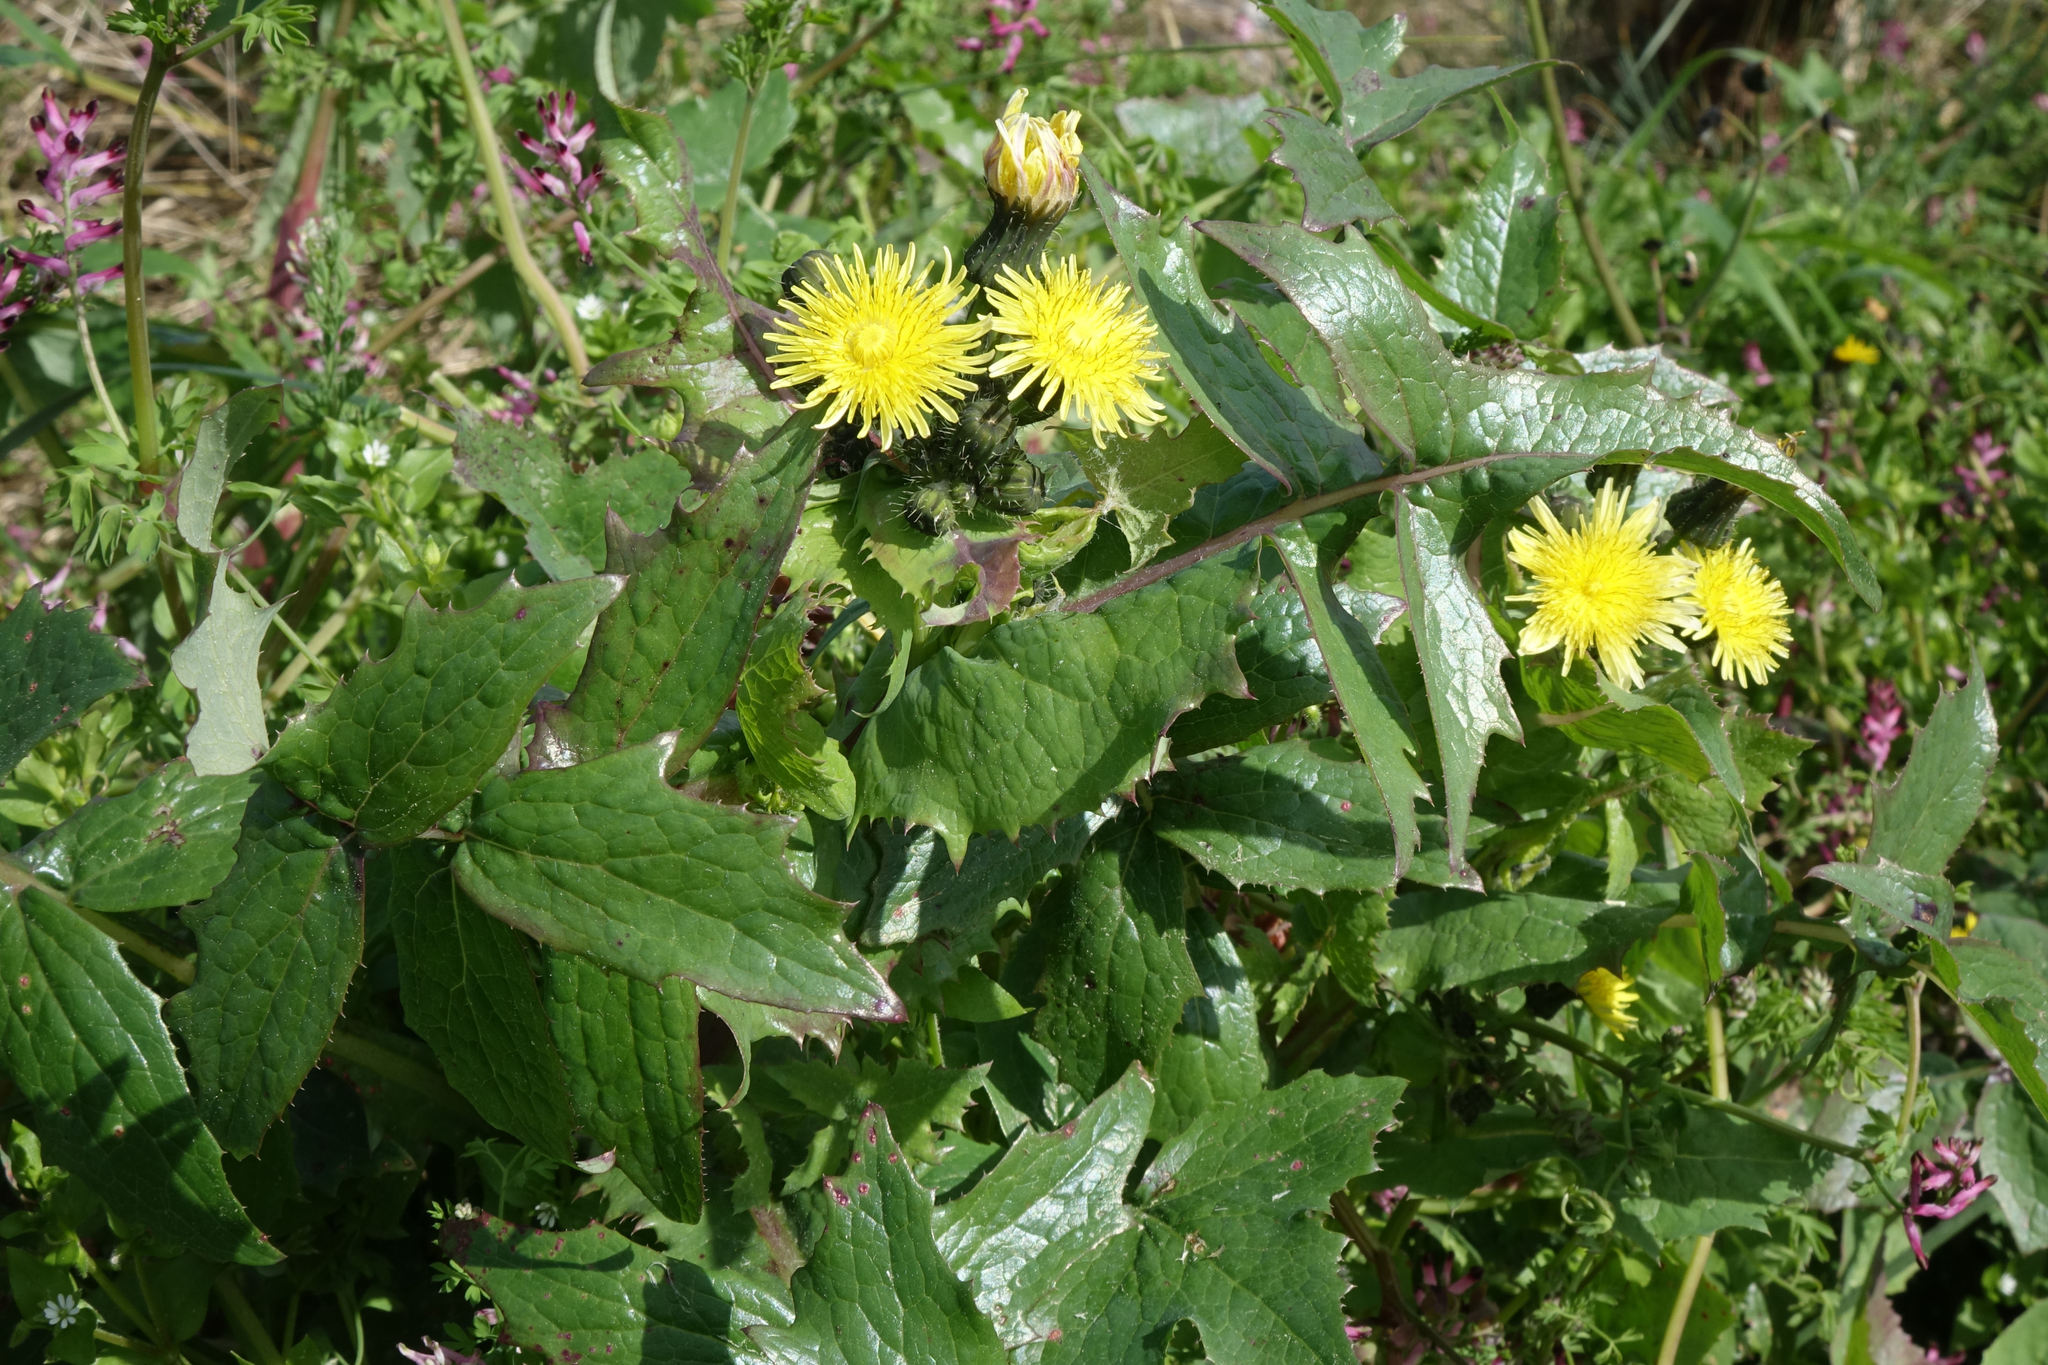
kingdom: Plantae
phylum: Tracheophyta
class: Magnoliopsida
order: Asterales
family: Asteraceae
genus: Sonchus
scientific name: Sonchus oleraceus
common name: Common sowthistle
